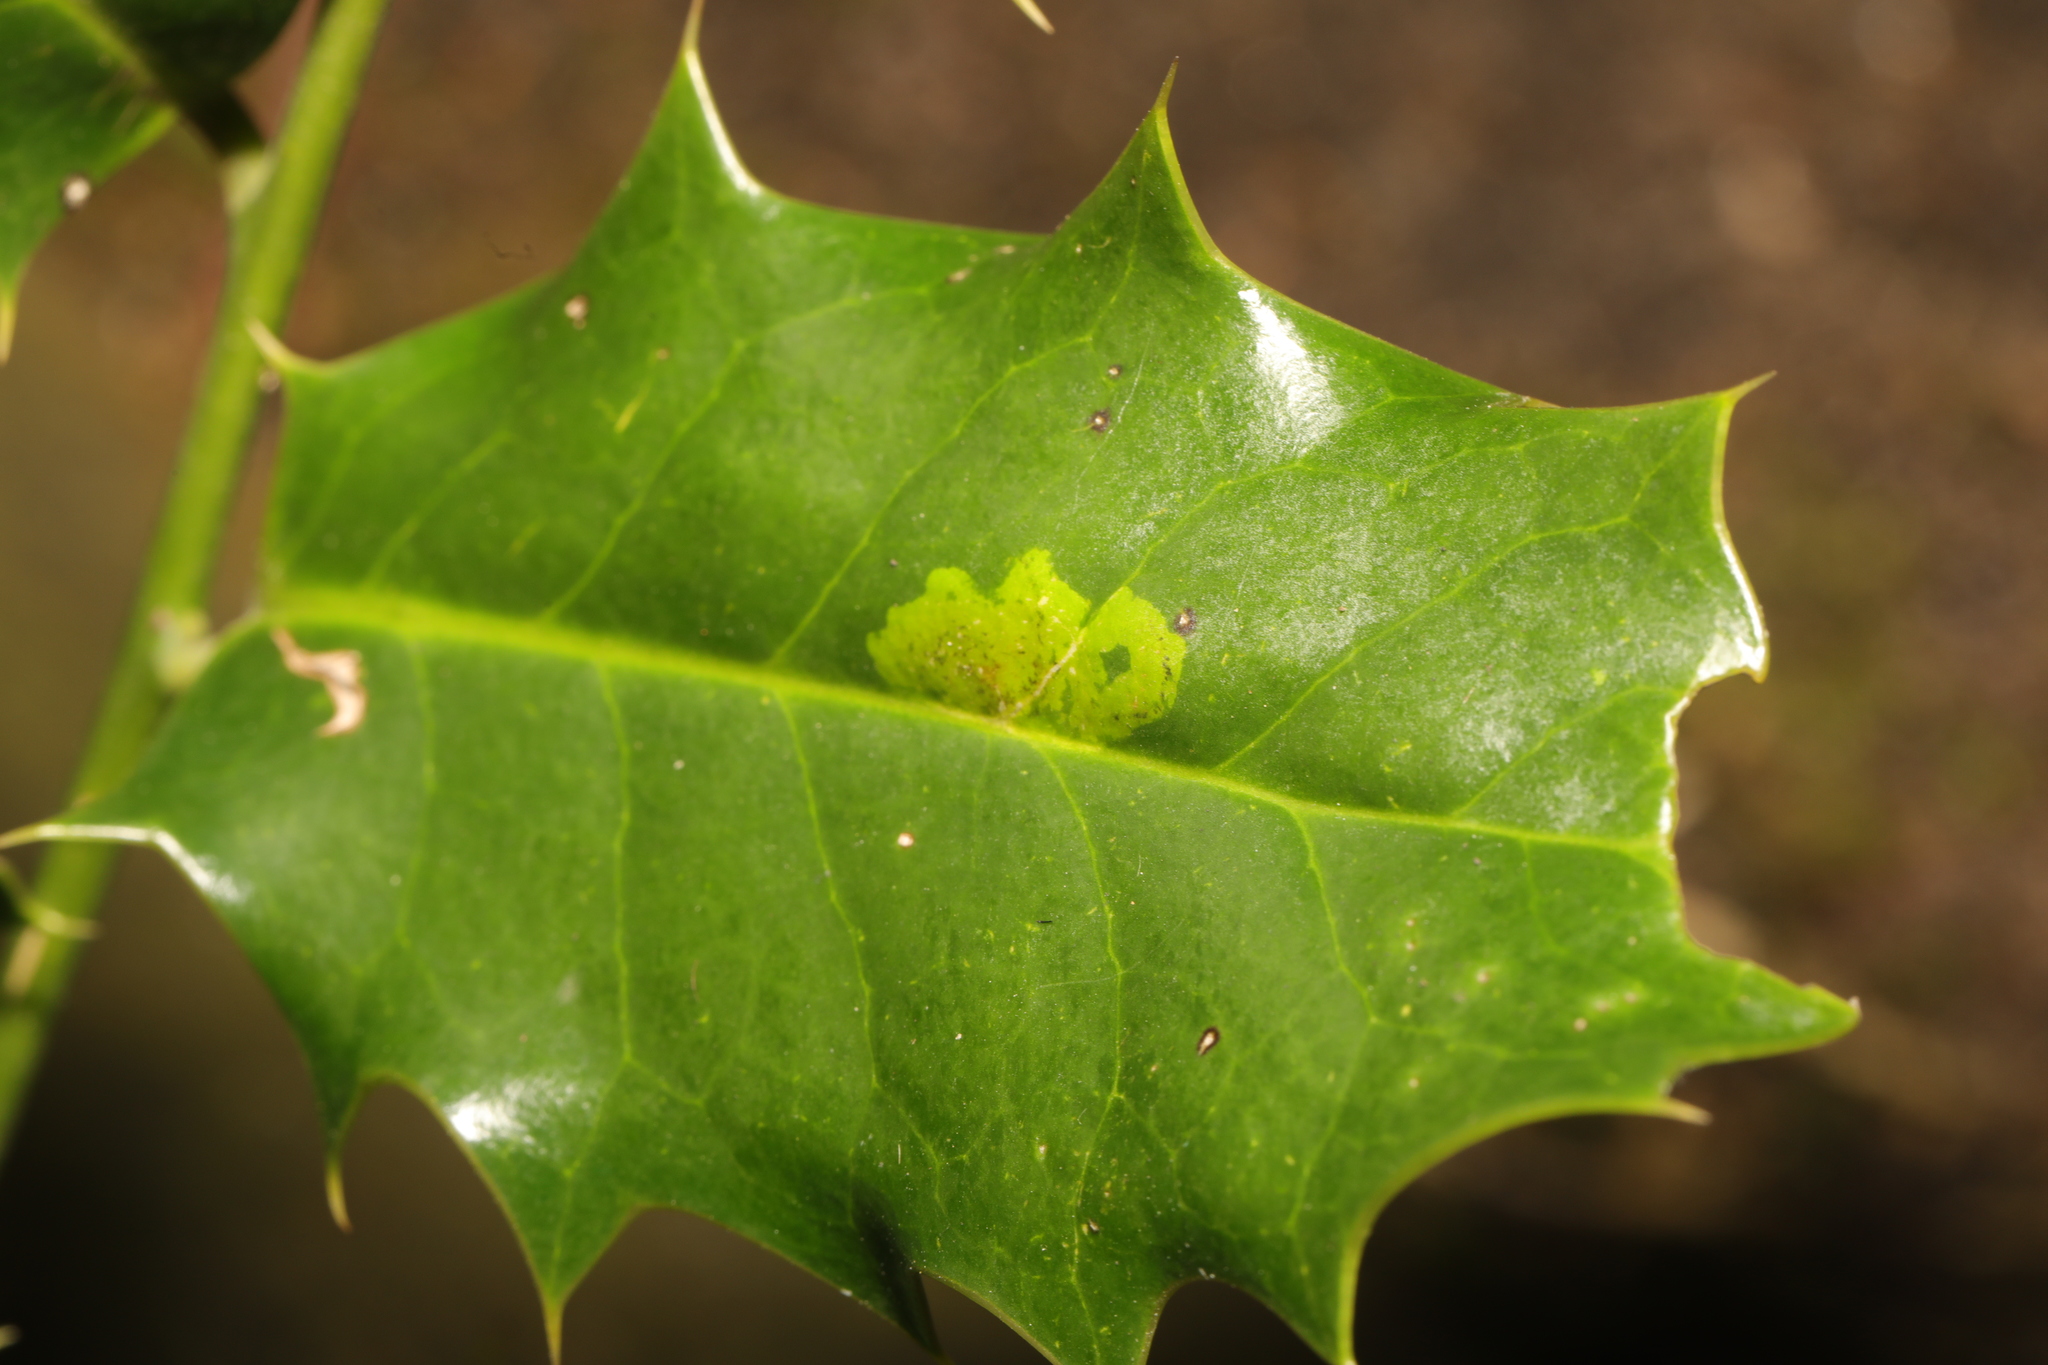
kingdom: Animalia
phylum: Arthropoda
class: Insecta
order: Diptera
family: Agromyzidae
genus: Phytomyza
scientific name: Phytomyza ilicis
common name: Holly leafminer
